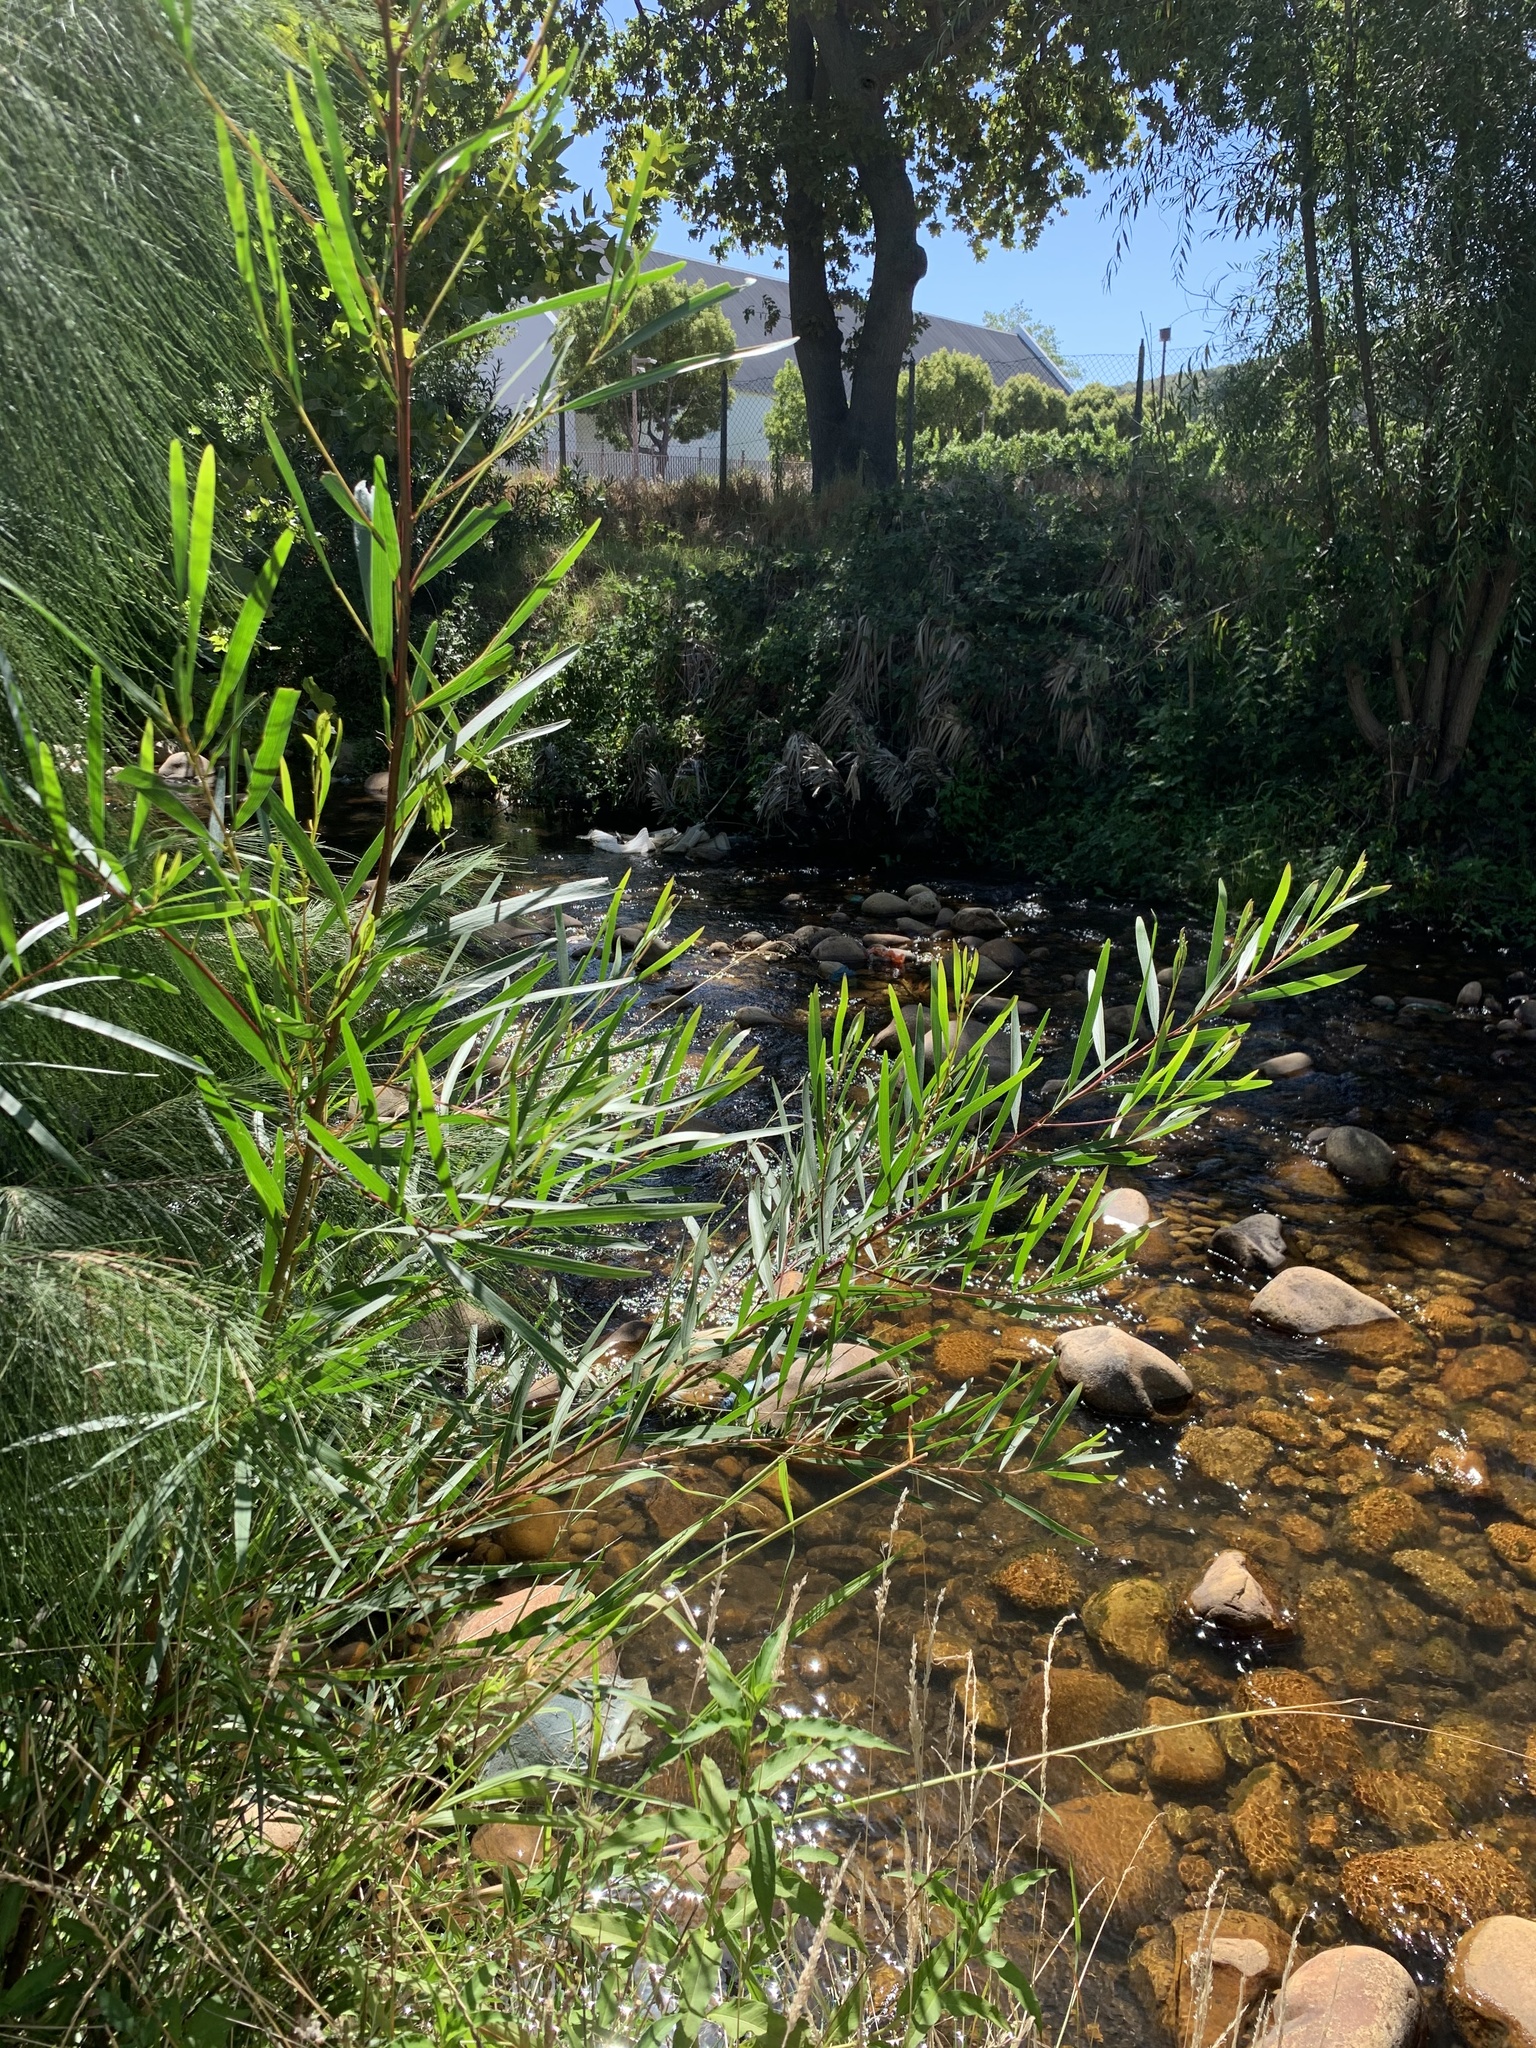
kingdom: Plantae
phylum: Tracheophyta
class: Magnoliopsida
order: Fabales
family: Fabaceae
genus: Acacia
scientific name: Acacia longifolia
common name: Sydney golden wattle
